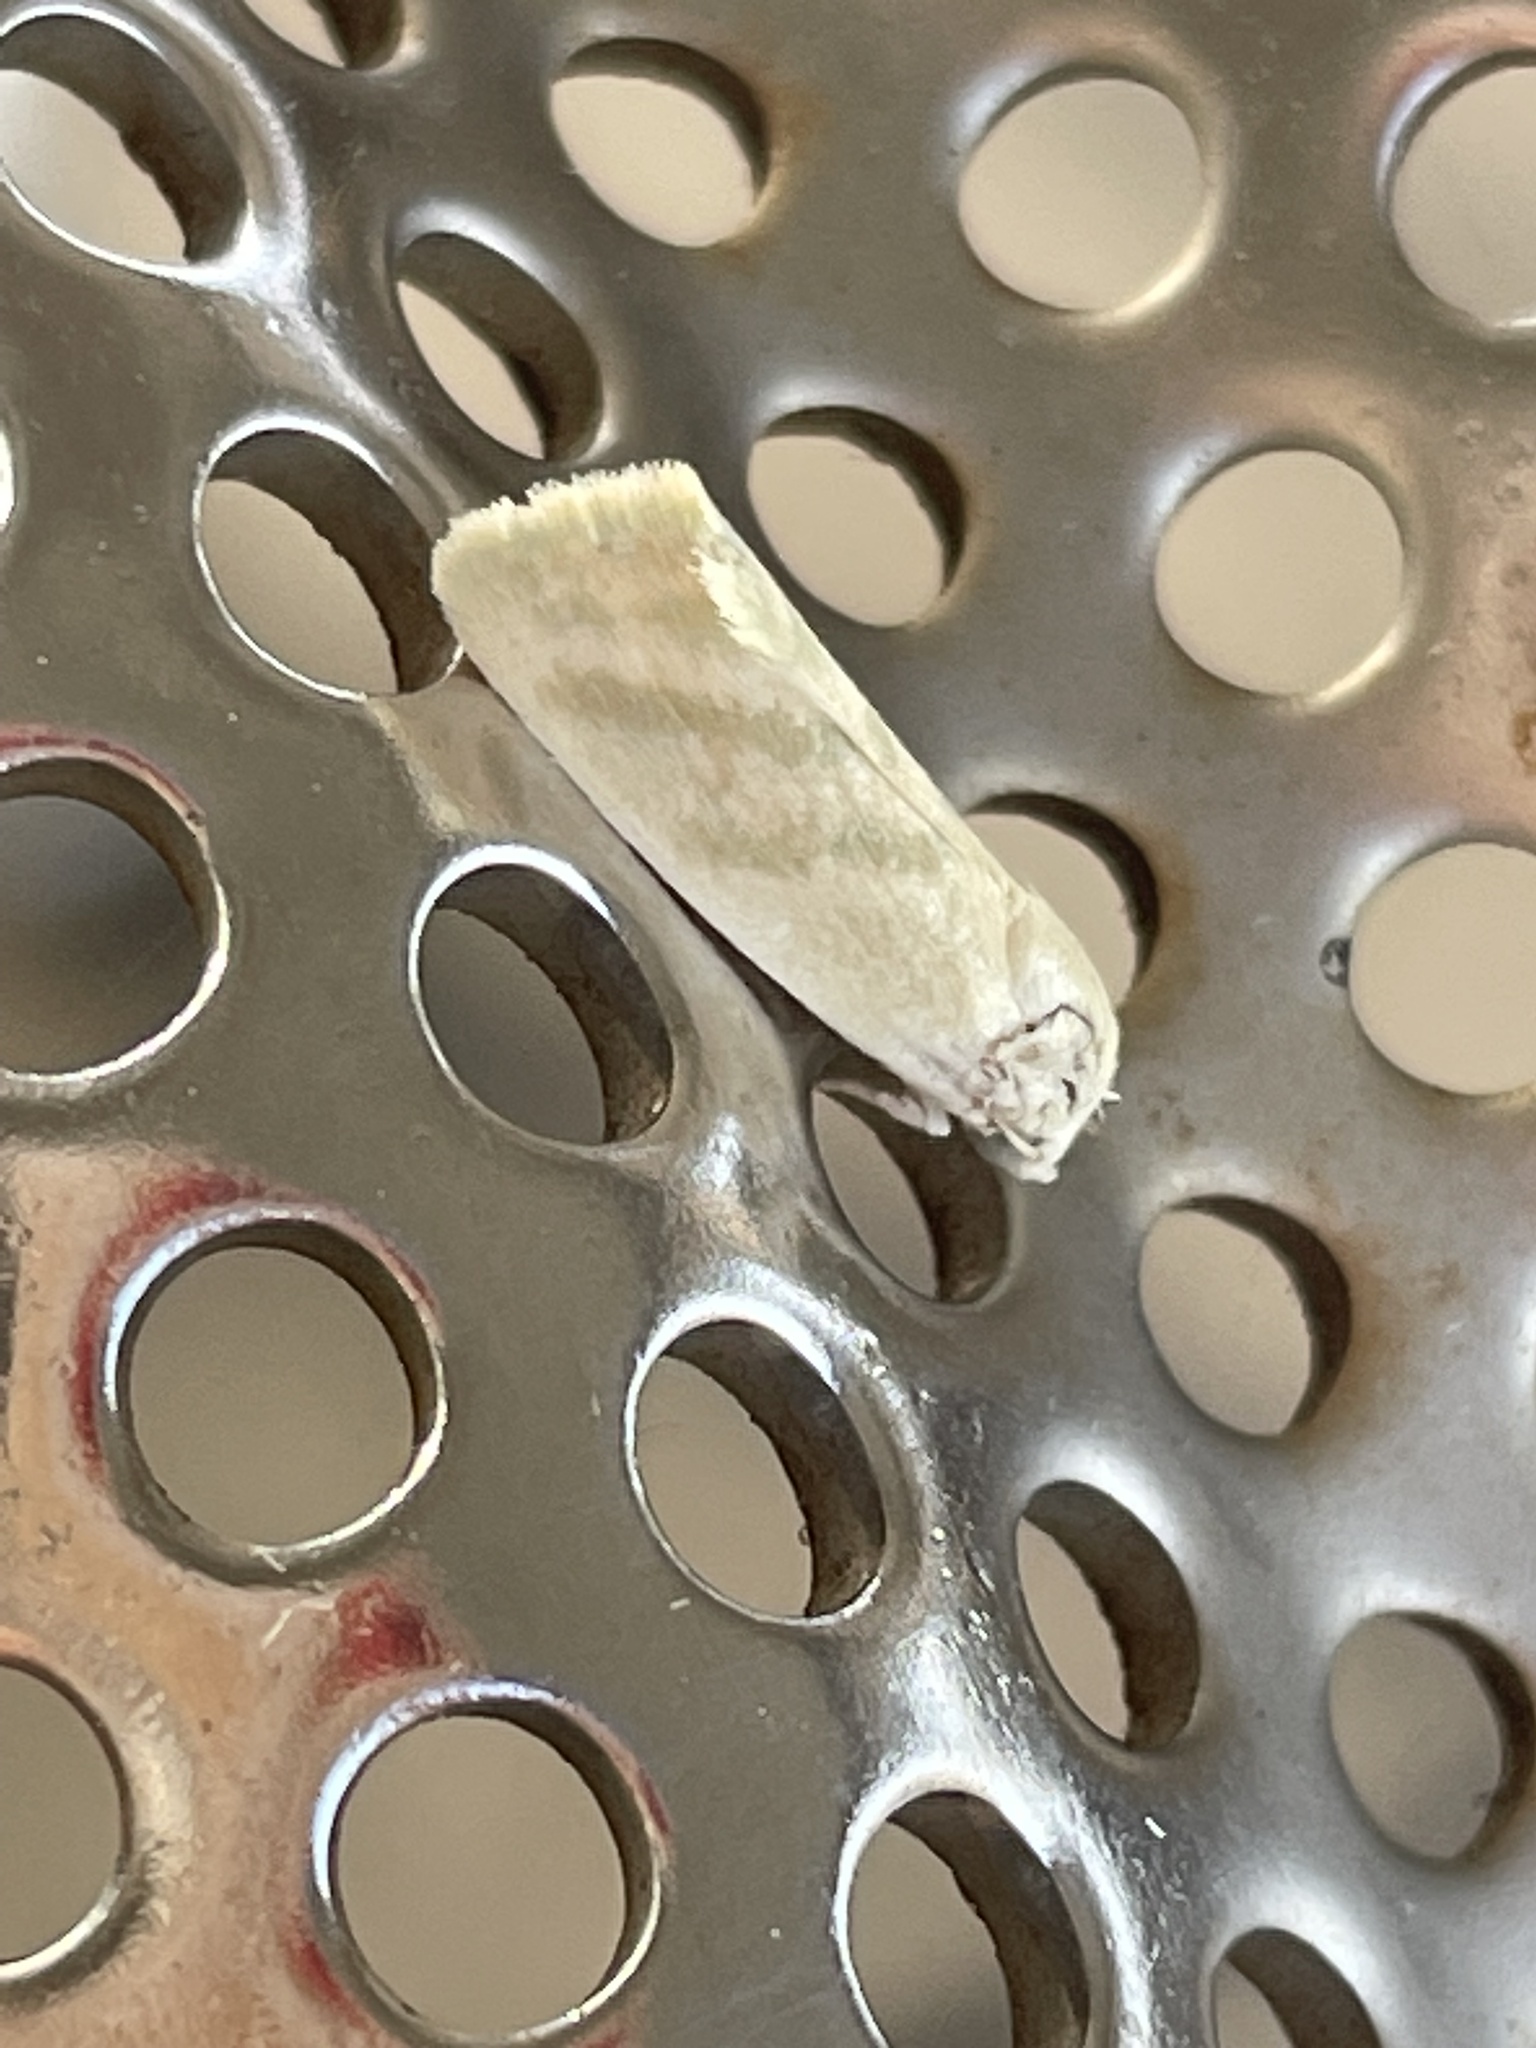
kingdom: Animalia
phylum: Arthropoda
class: Insecta
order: Lepidoptera
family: Nolidae
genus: Earias
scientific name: Earias paralella
